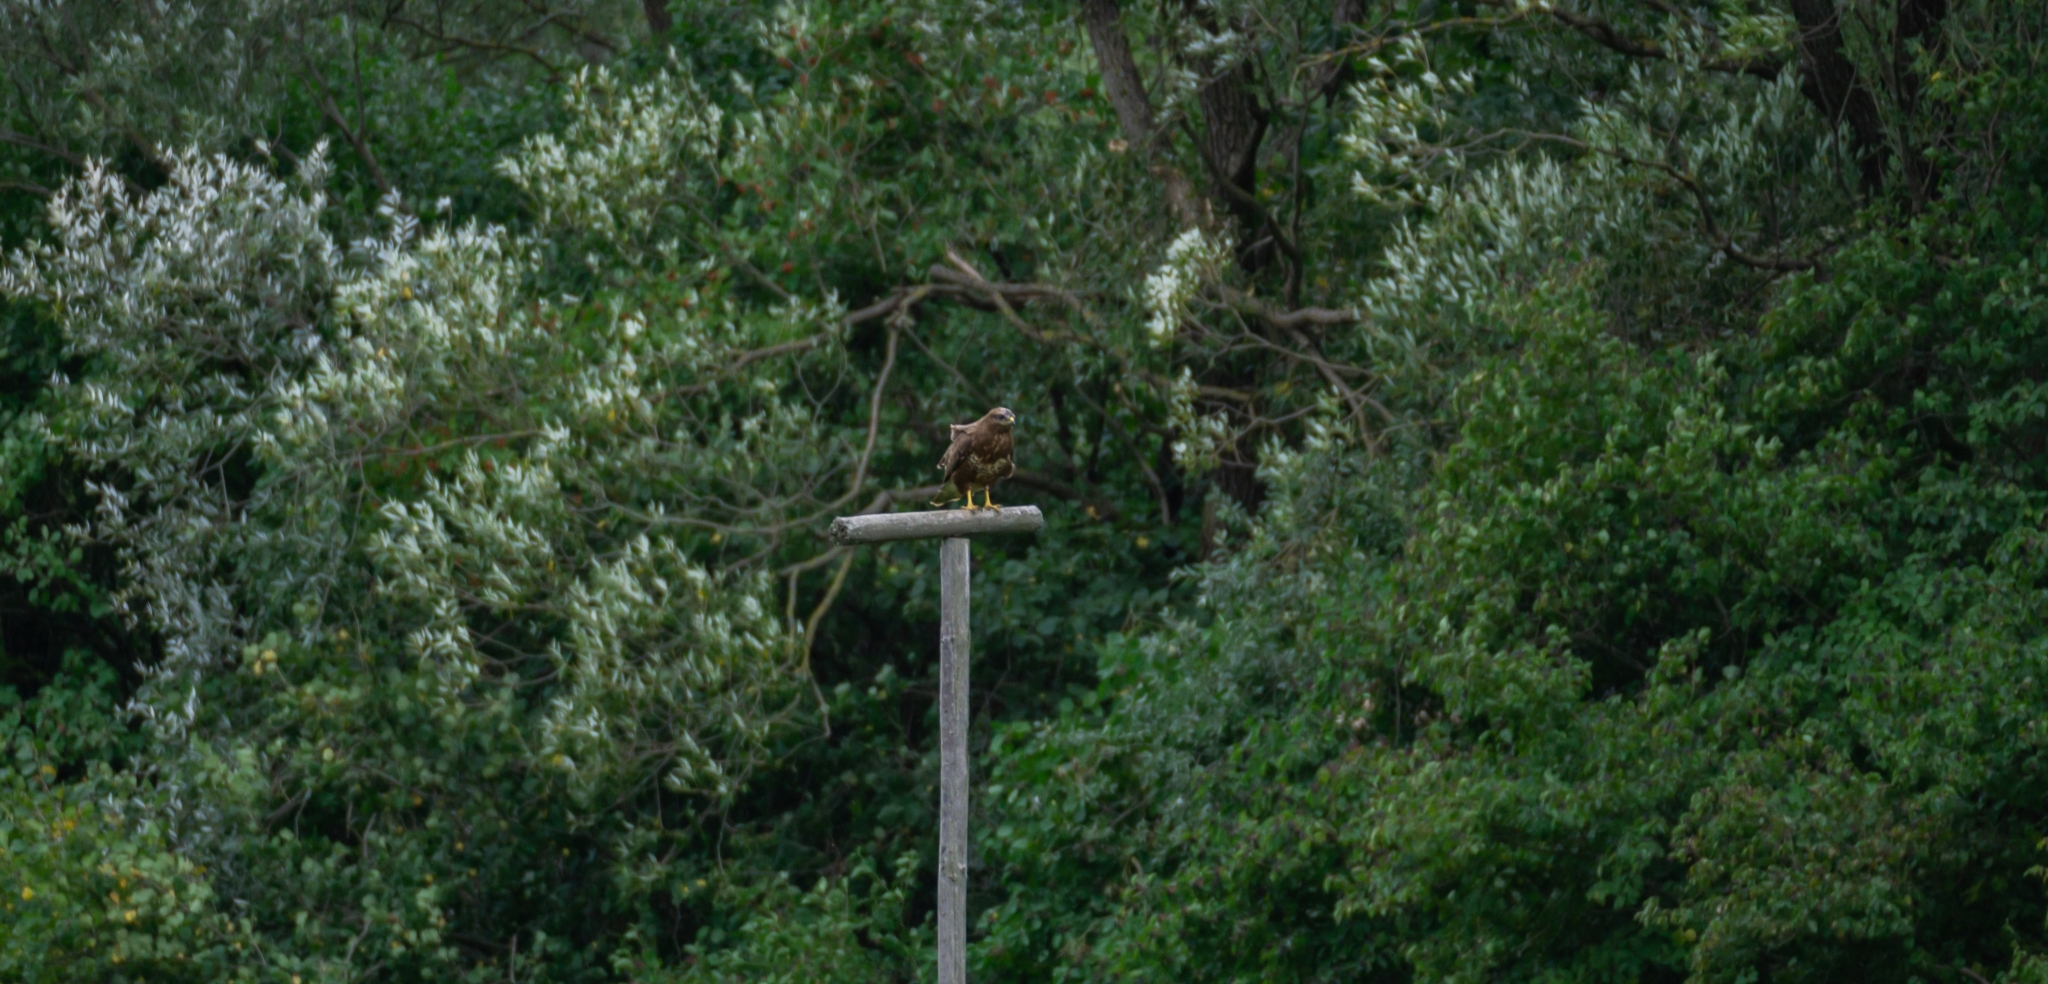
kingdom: Animalia
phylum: Chordata
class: Aves
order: Accipitriformes
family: Accipitridae
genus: Buteo
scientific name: Buteo buteo
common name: Common buzzard
